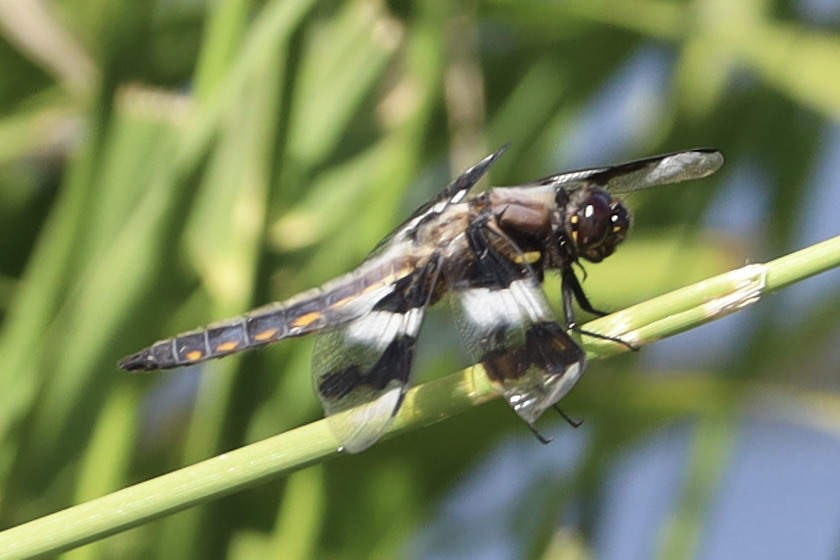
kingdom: Animalia
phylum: Arthropoda
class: Insecta
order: Odonata
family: Libellulidae
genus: Libellula
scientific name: Libellula forensis
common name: Eight-spotted skimmer
